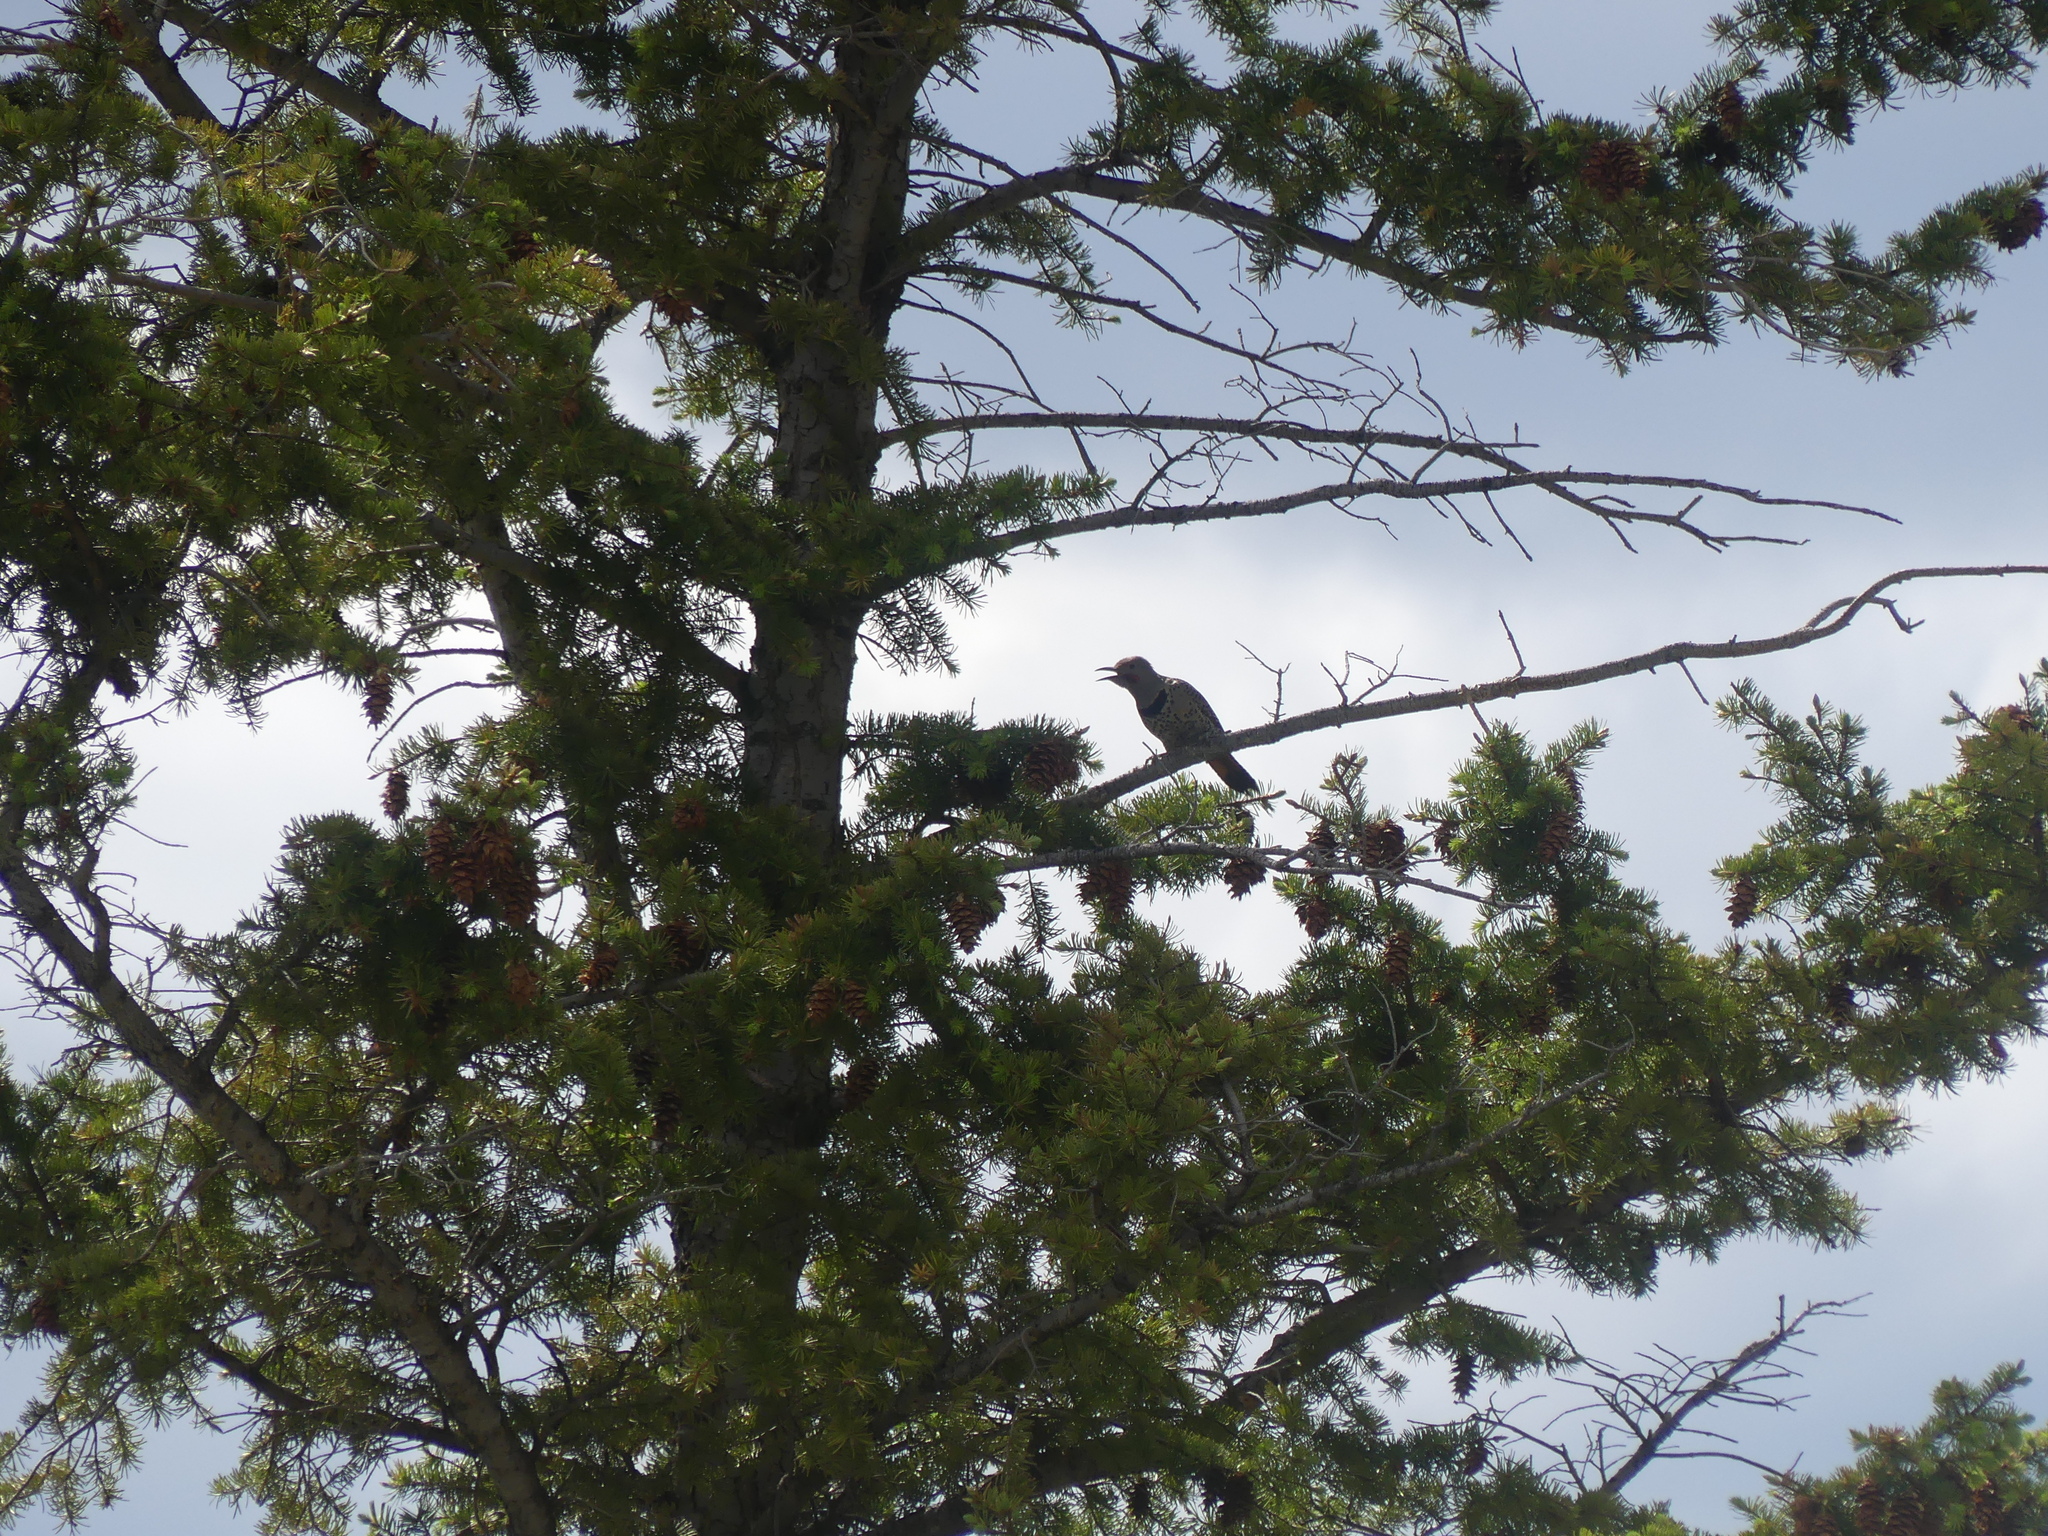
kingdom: Animalia
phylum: Chordata
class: Aves
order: Piciformes
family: Picidae
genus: Colaptes
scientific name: Colaptes auratus
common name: Northern flicker
